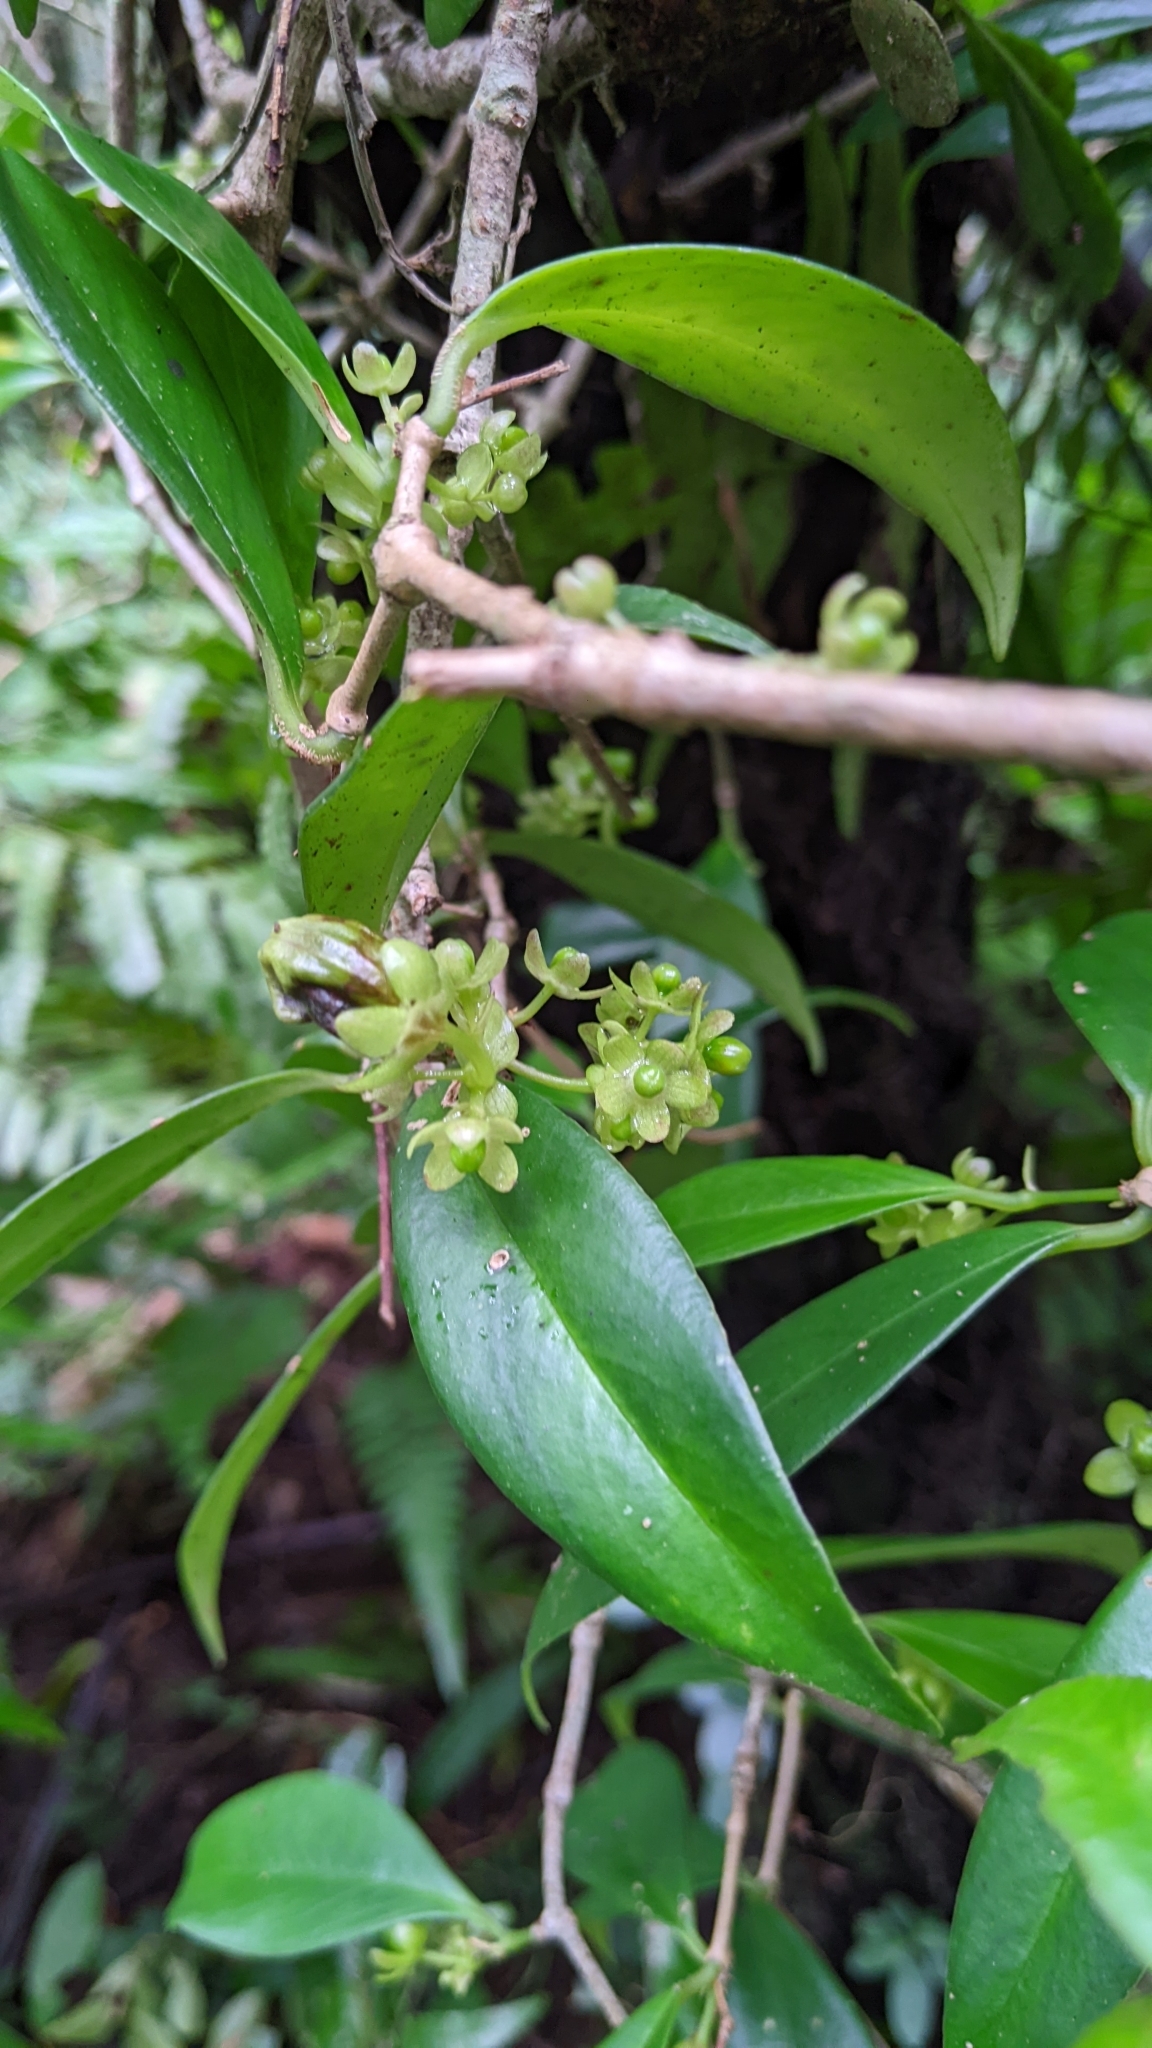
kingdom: Plantae
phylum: Tracheophyta
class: Magnoliopsida
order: Lamiales
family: Gesneriaceae
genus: Aeschynanthus
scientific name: Aeschynanthus acuminatus
